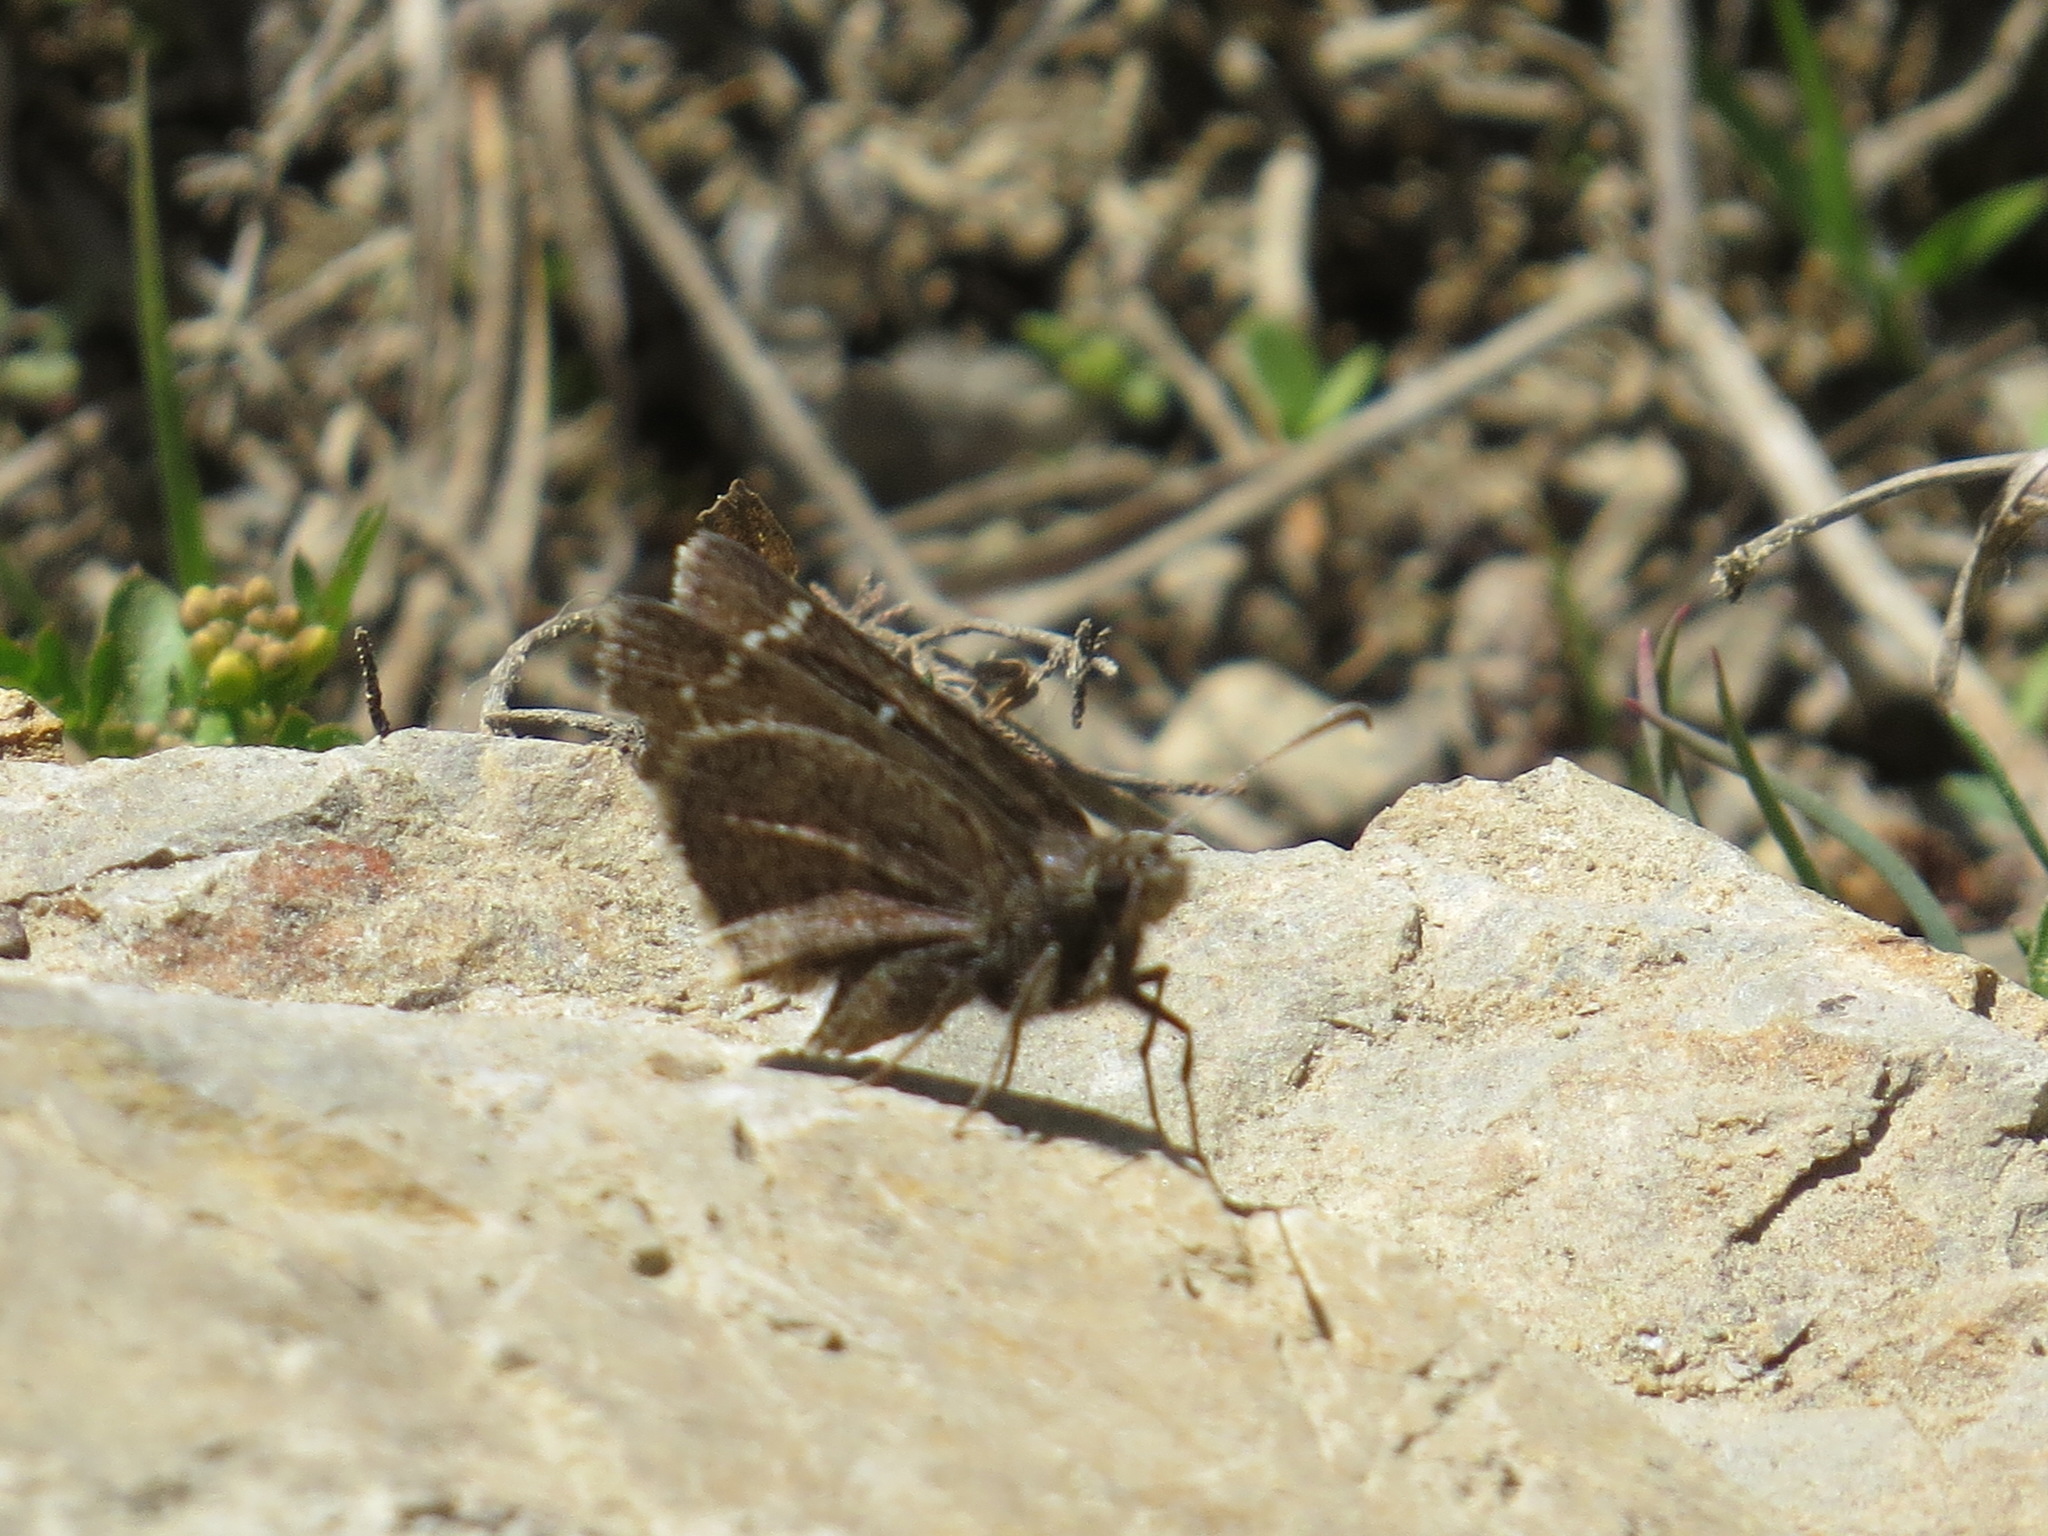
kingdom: Animalia
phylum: Arthropoda
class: Insecta
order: Lepidoptera
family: Hesperiidae
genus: Thorybes
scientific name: Thorybes mexicana
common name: Mexican cloudywing
